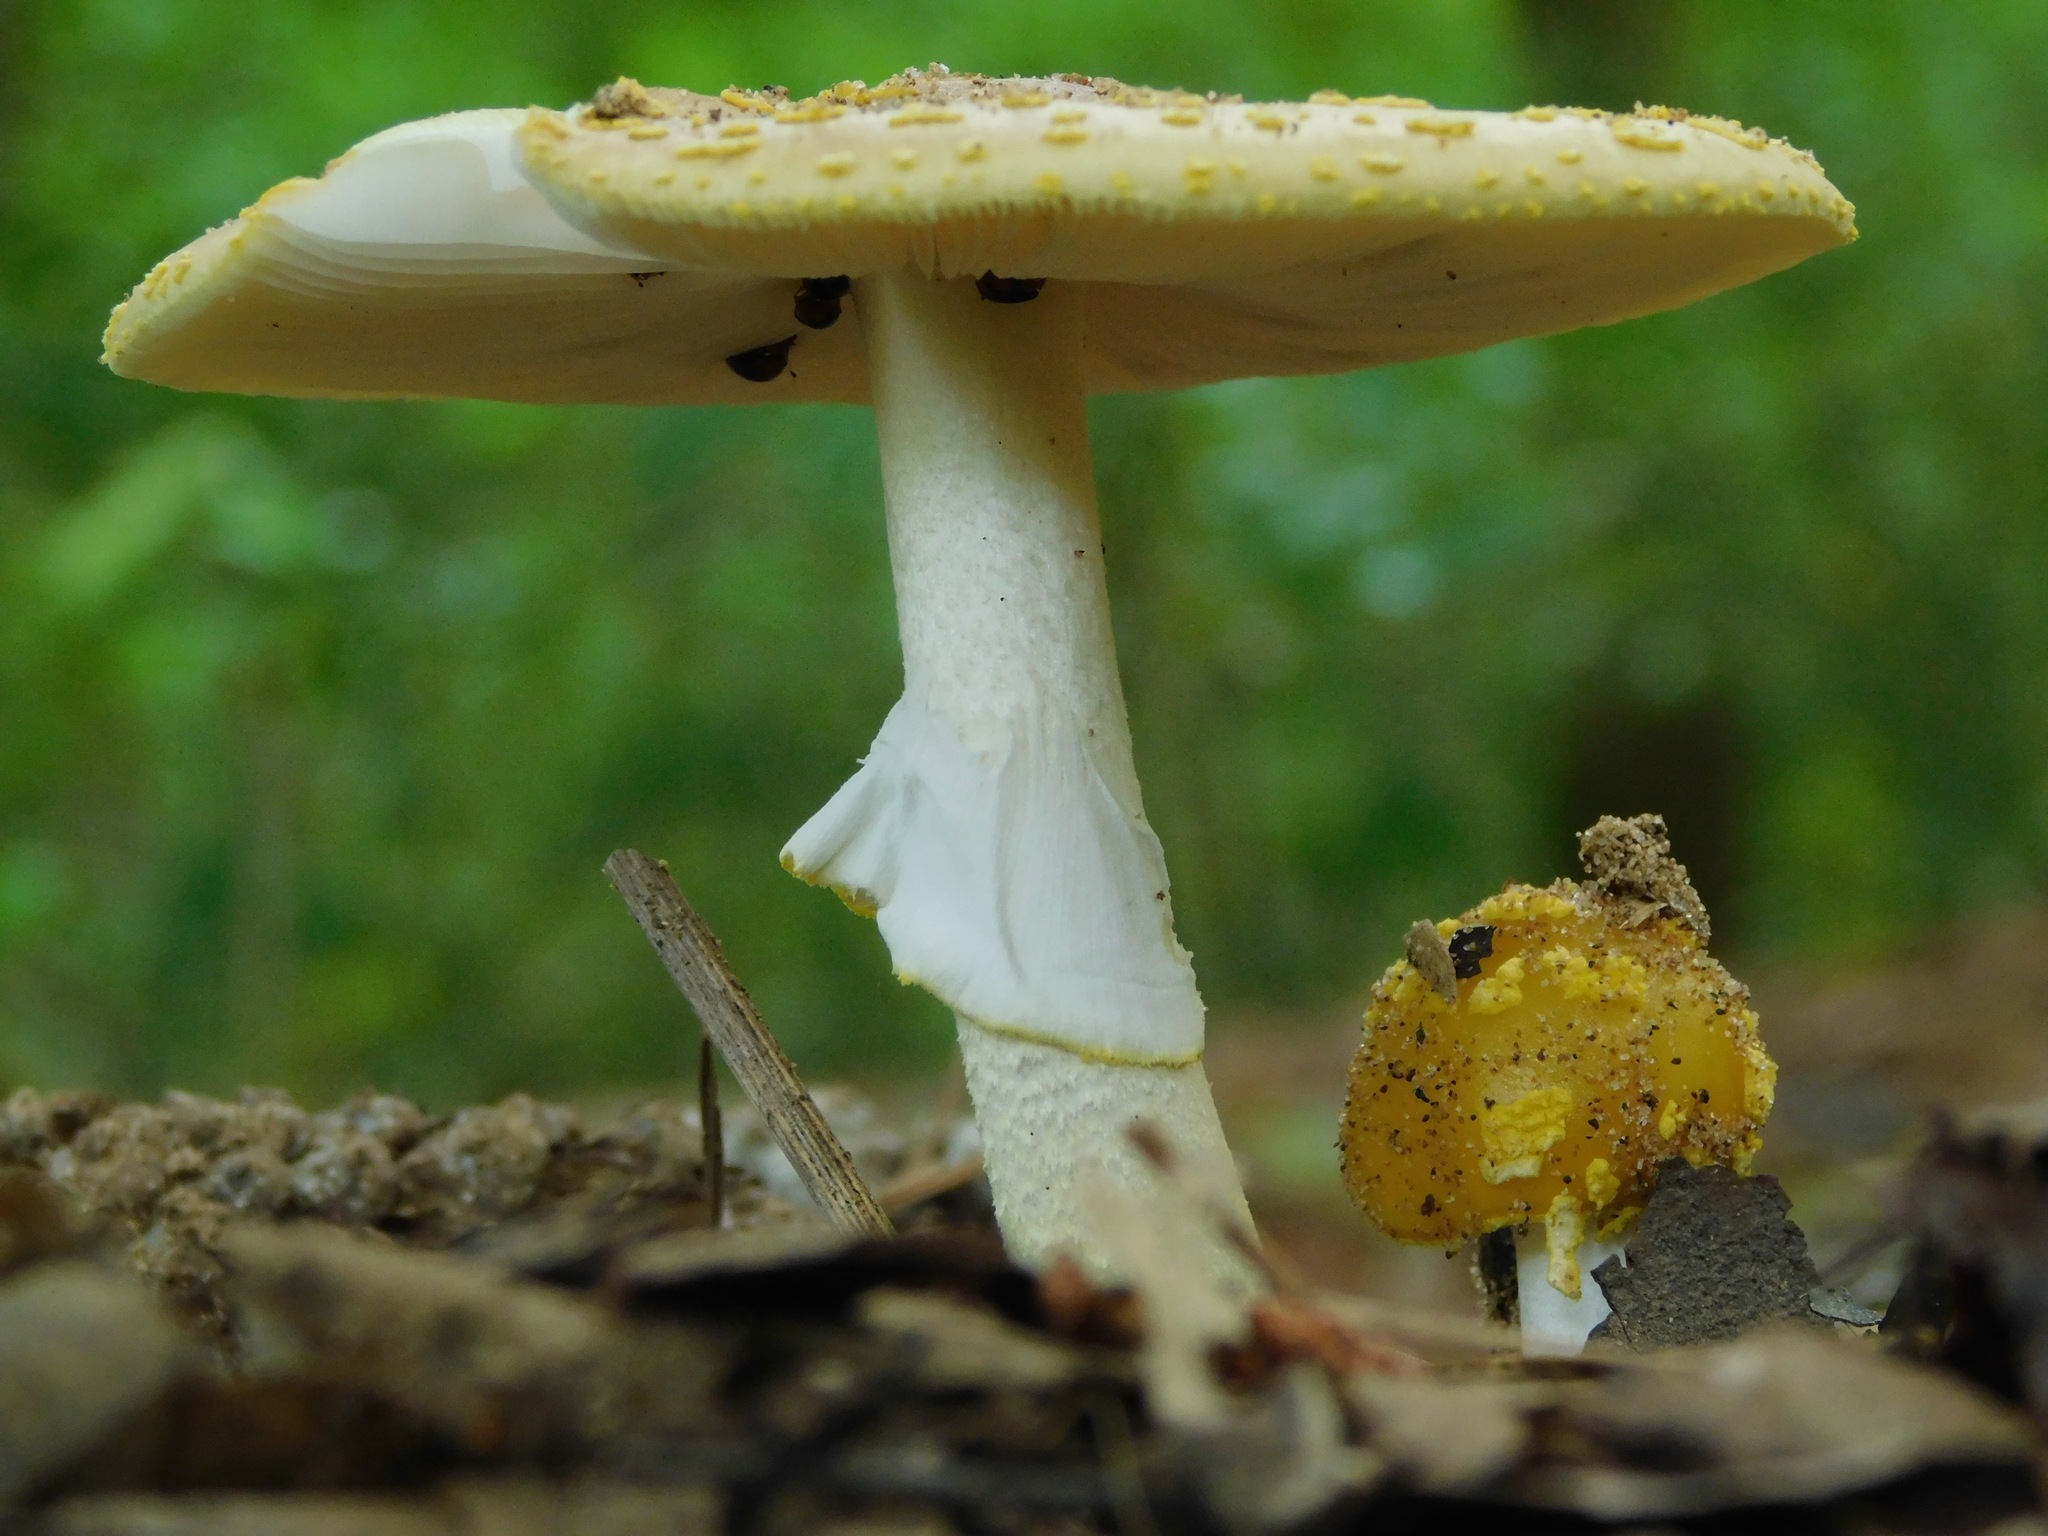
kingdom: Fungi
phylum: Basidiomycota
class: Agaricomycetes
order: Agaricales
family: Amanitaceae
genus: Amanita
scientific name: Amanita flavorubens
